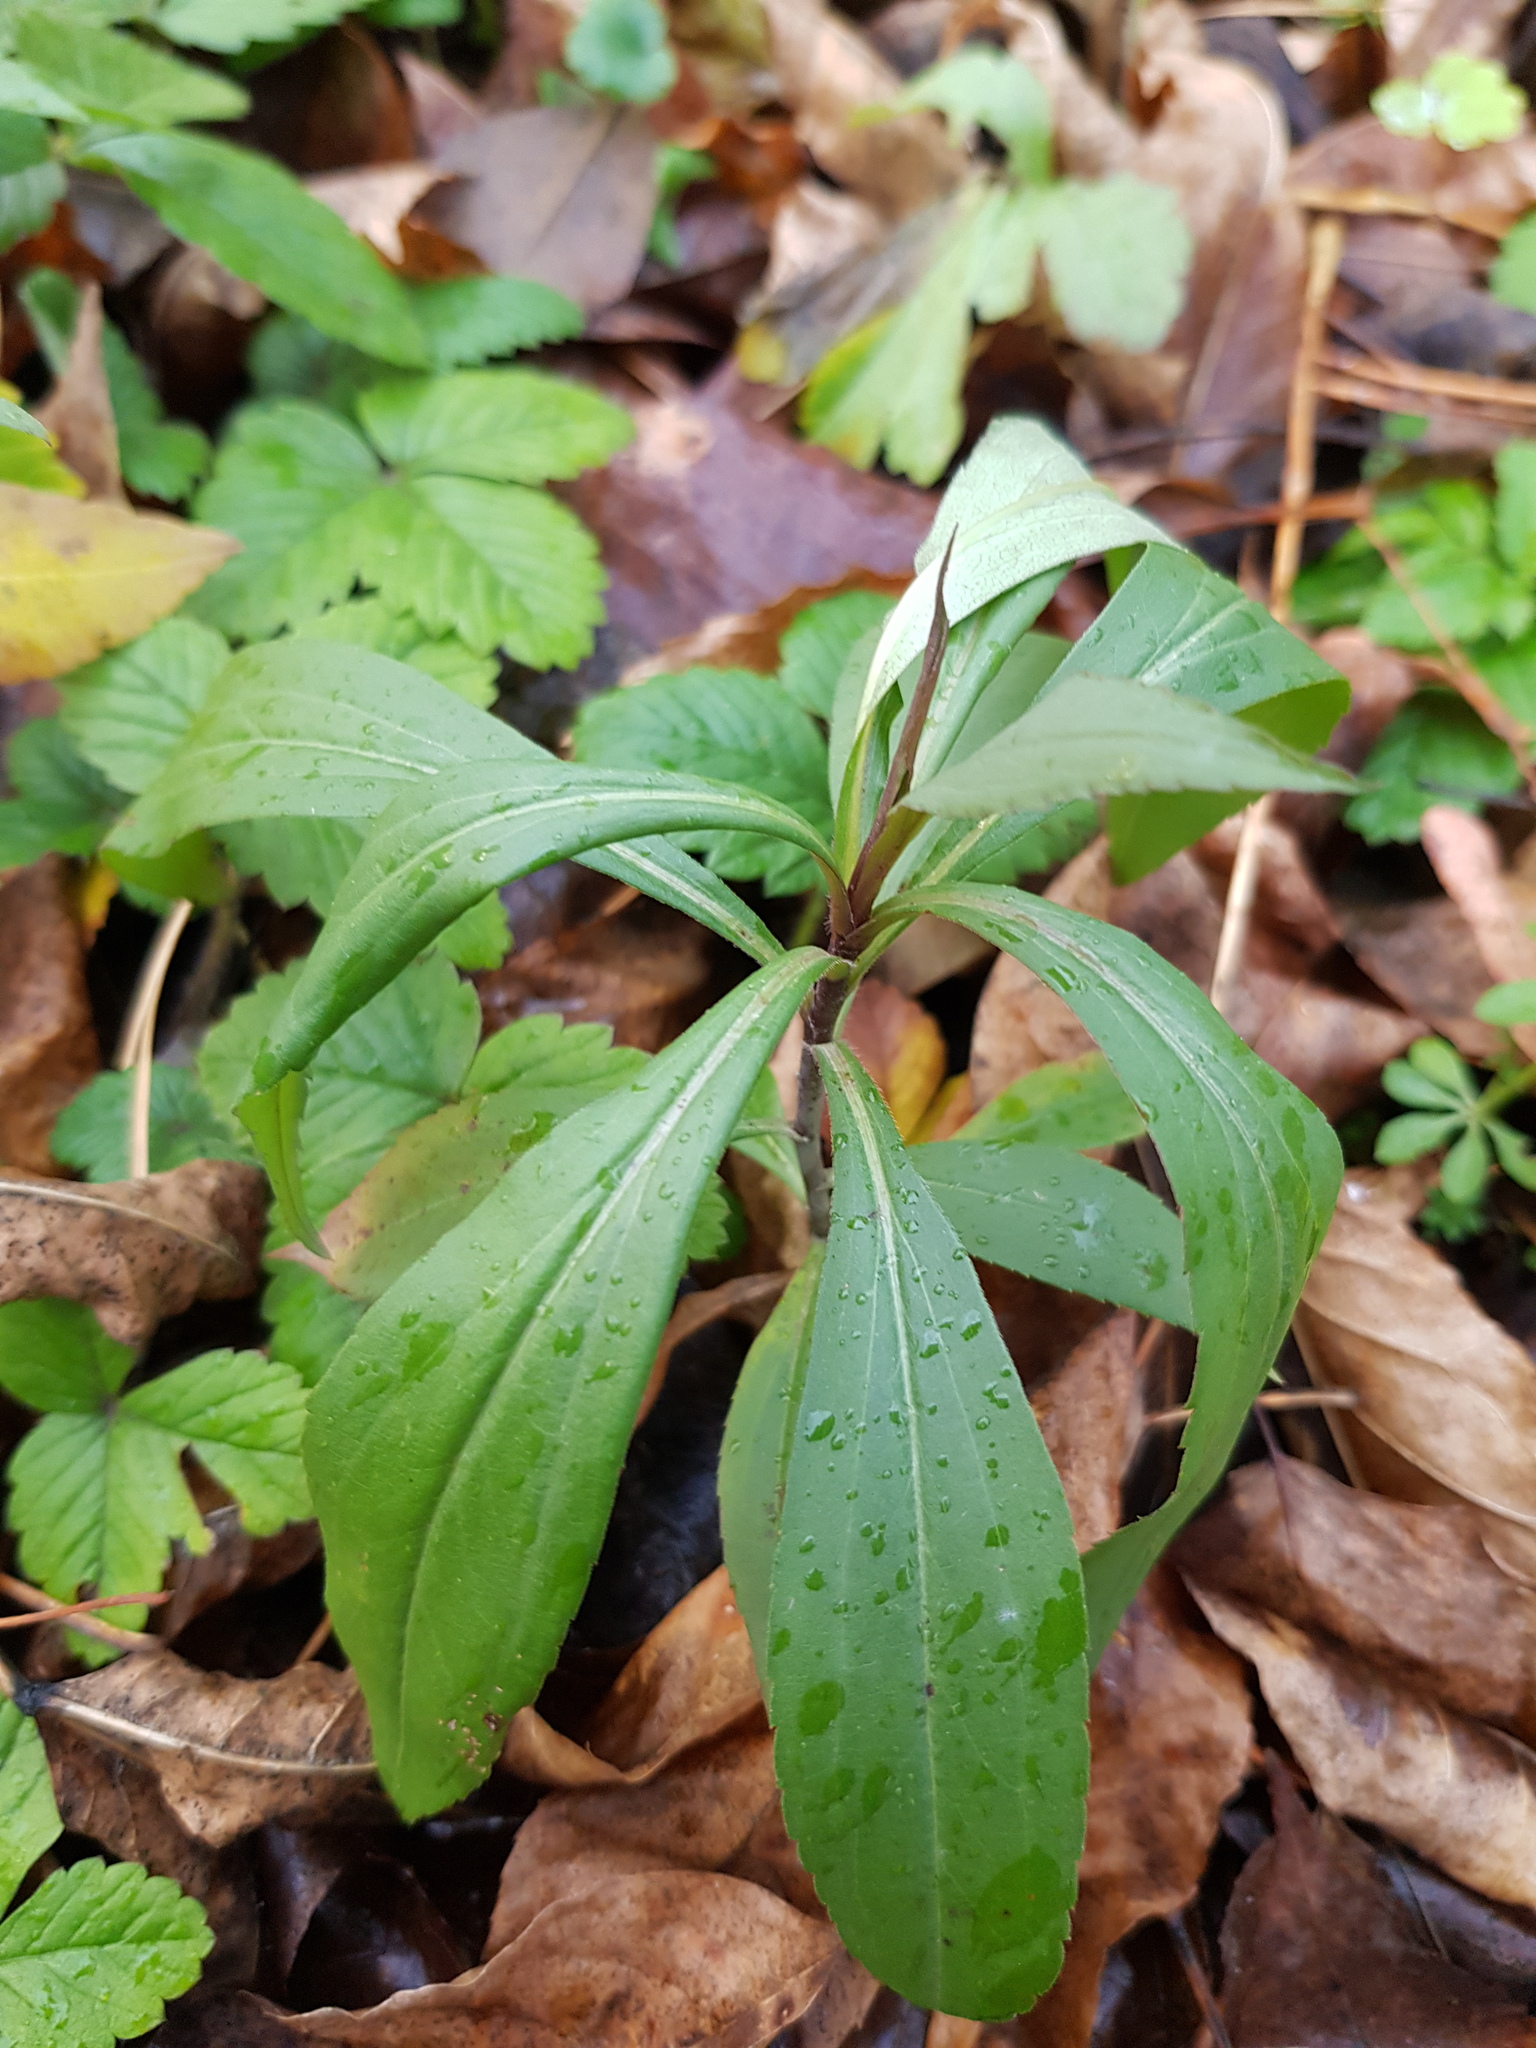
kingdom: Plantae
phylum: Tracheophyta
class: Magnoliopsida
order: Asterales
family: Asteraceae
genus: Solidago
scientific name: Solidago gigantea
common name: Giant goldenrod
